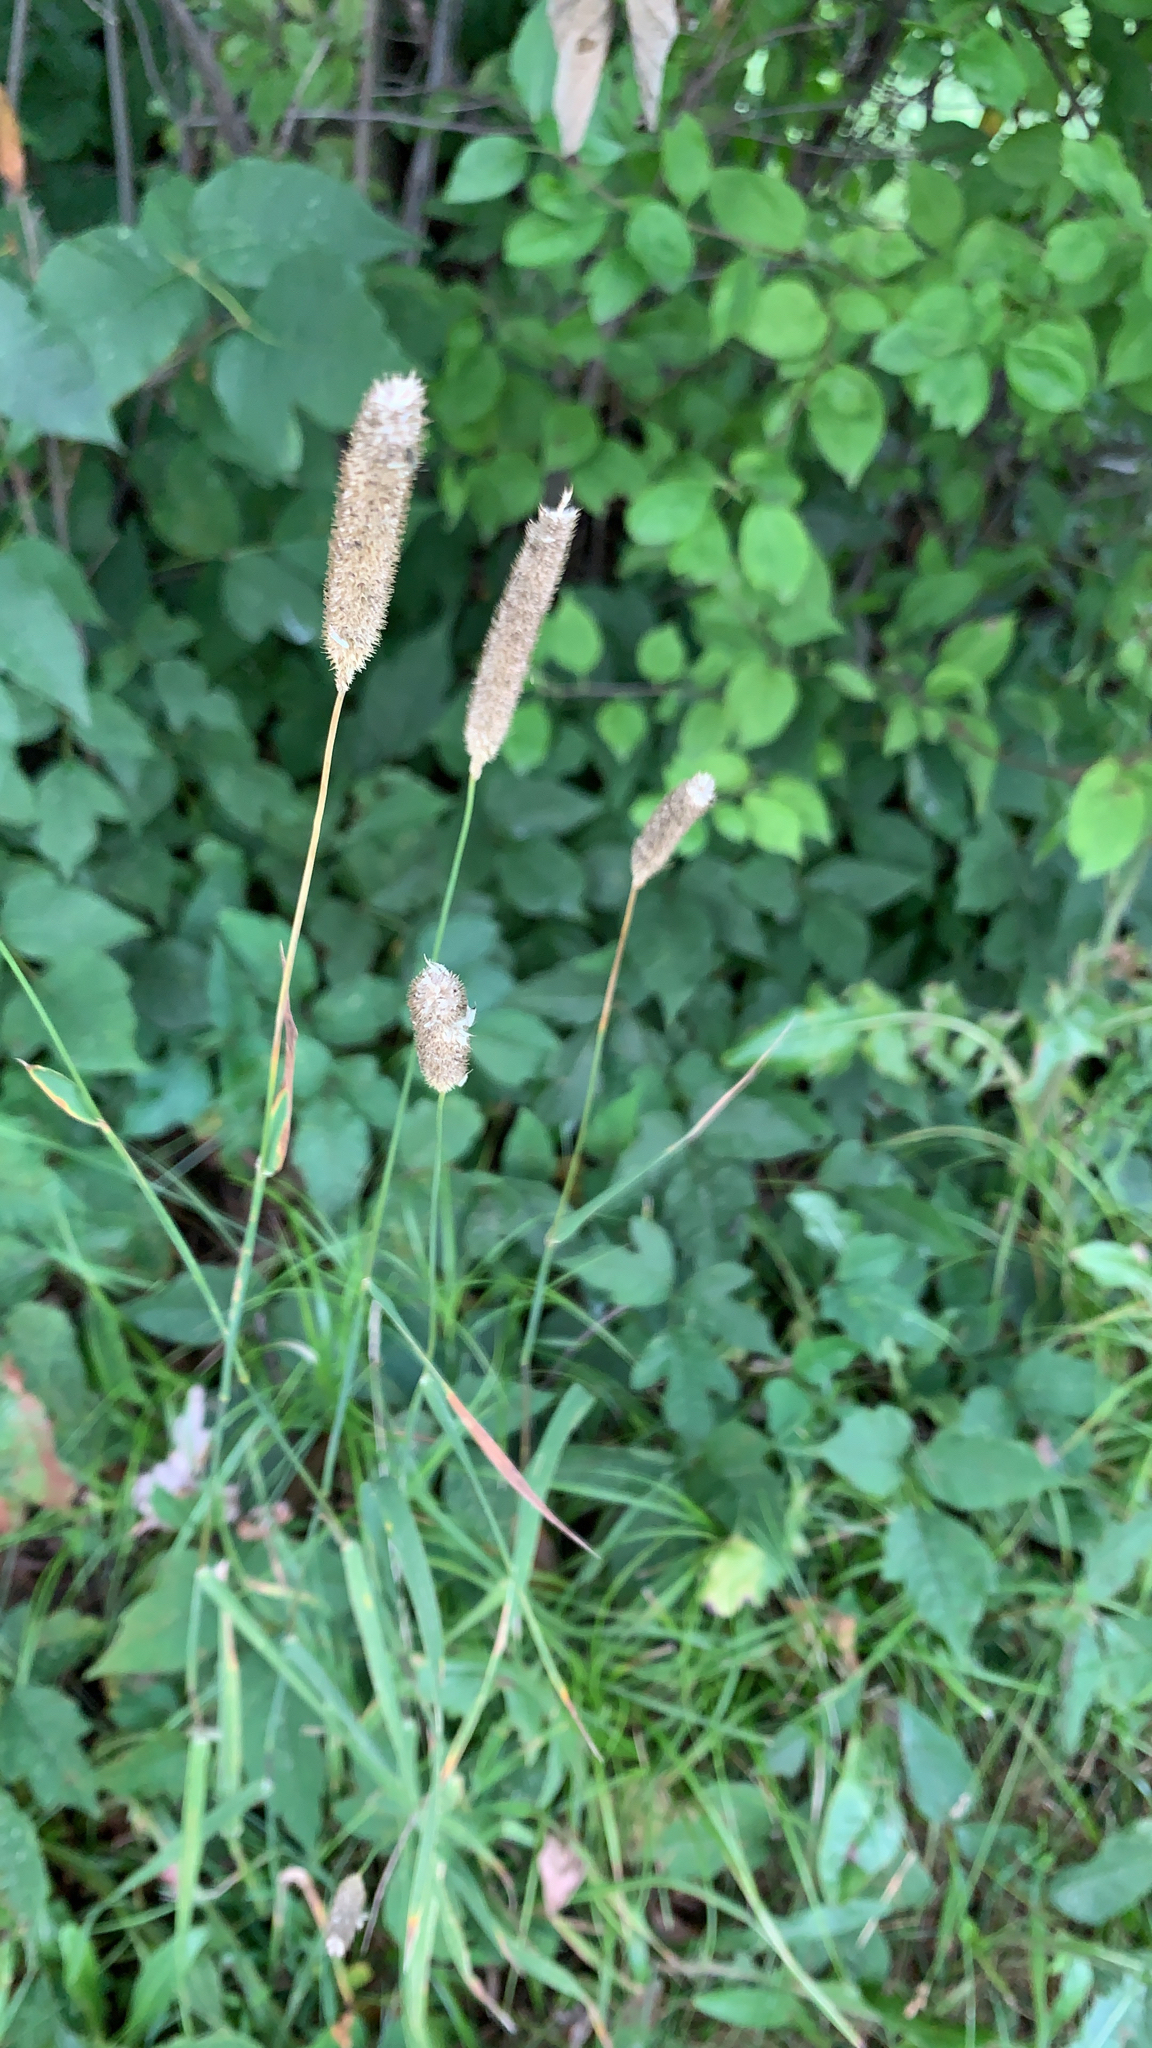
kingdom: Plantae
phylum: Tracheophyta
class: Liliopsida
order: Poales
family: Poaceae
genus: Phleum
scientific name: Phleum pratense
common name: Timothy grass
